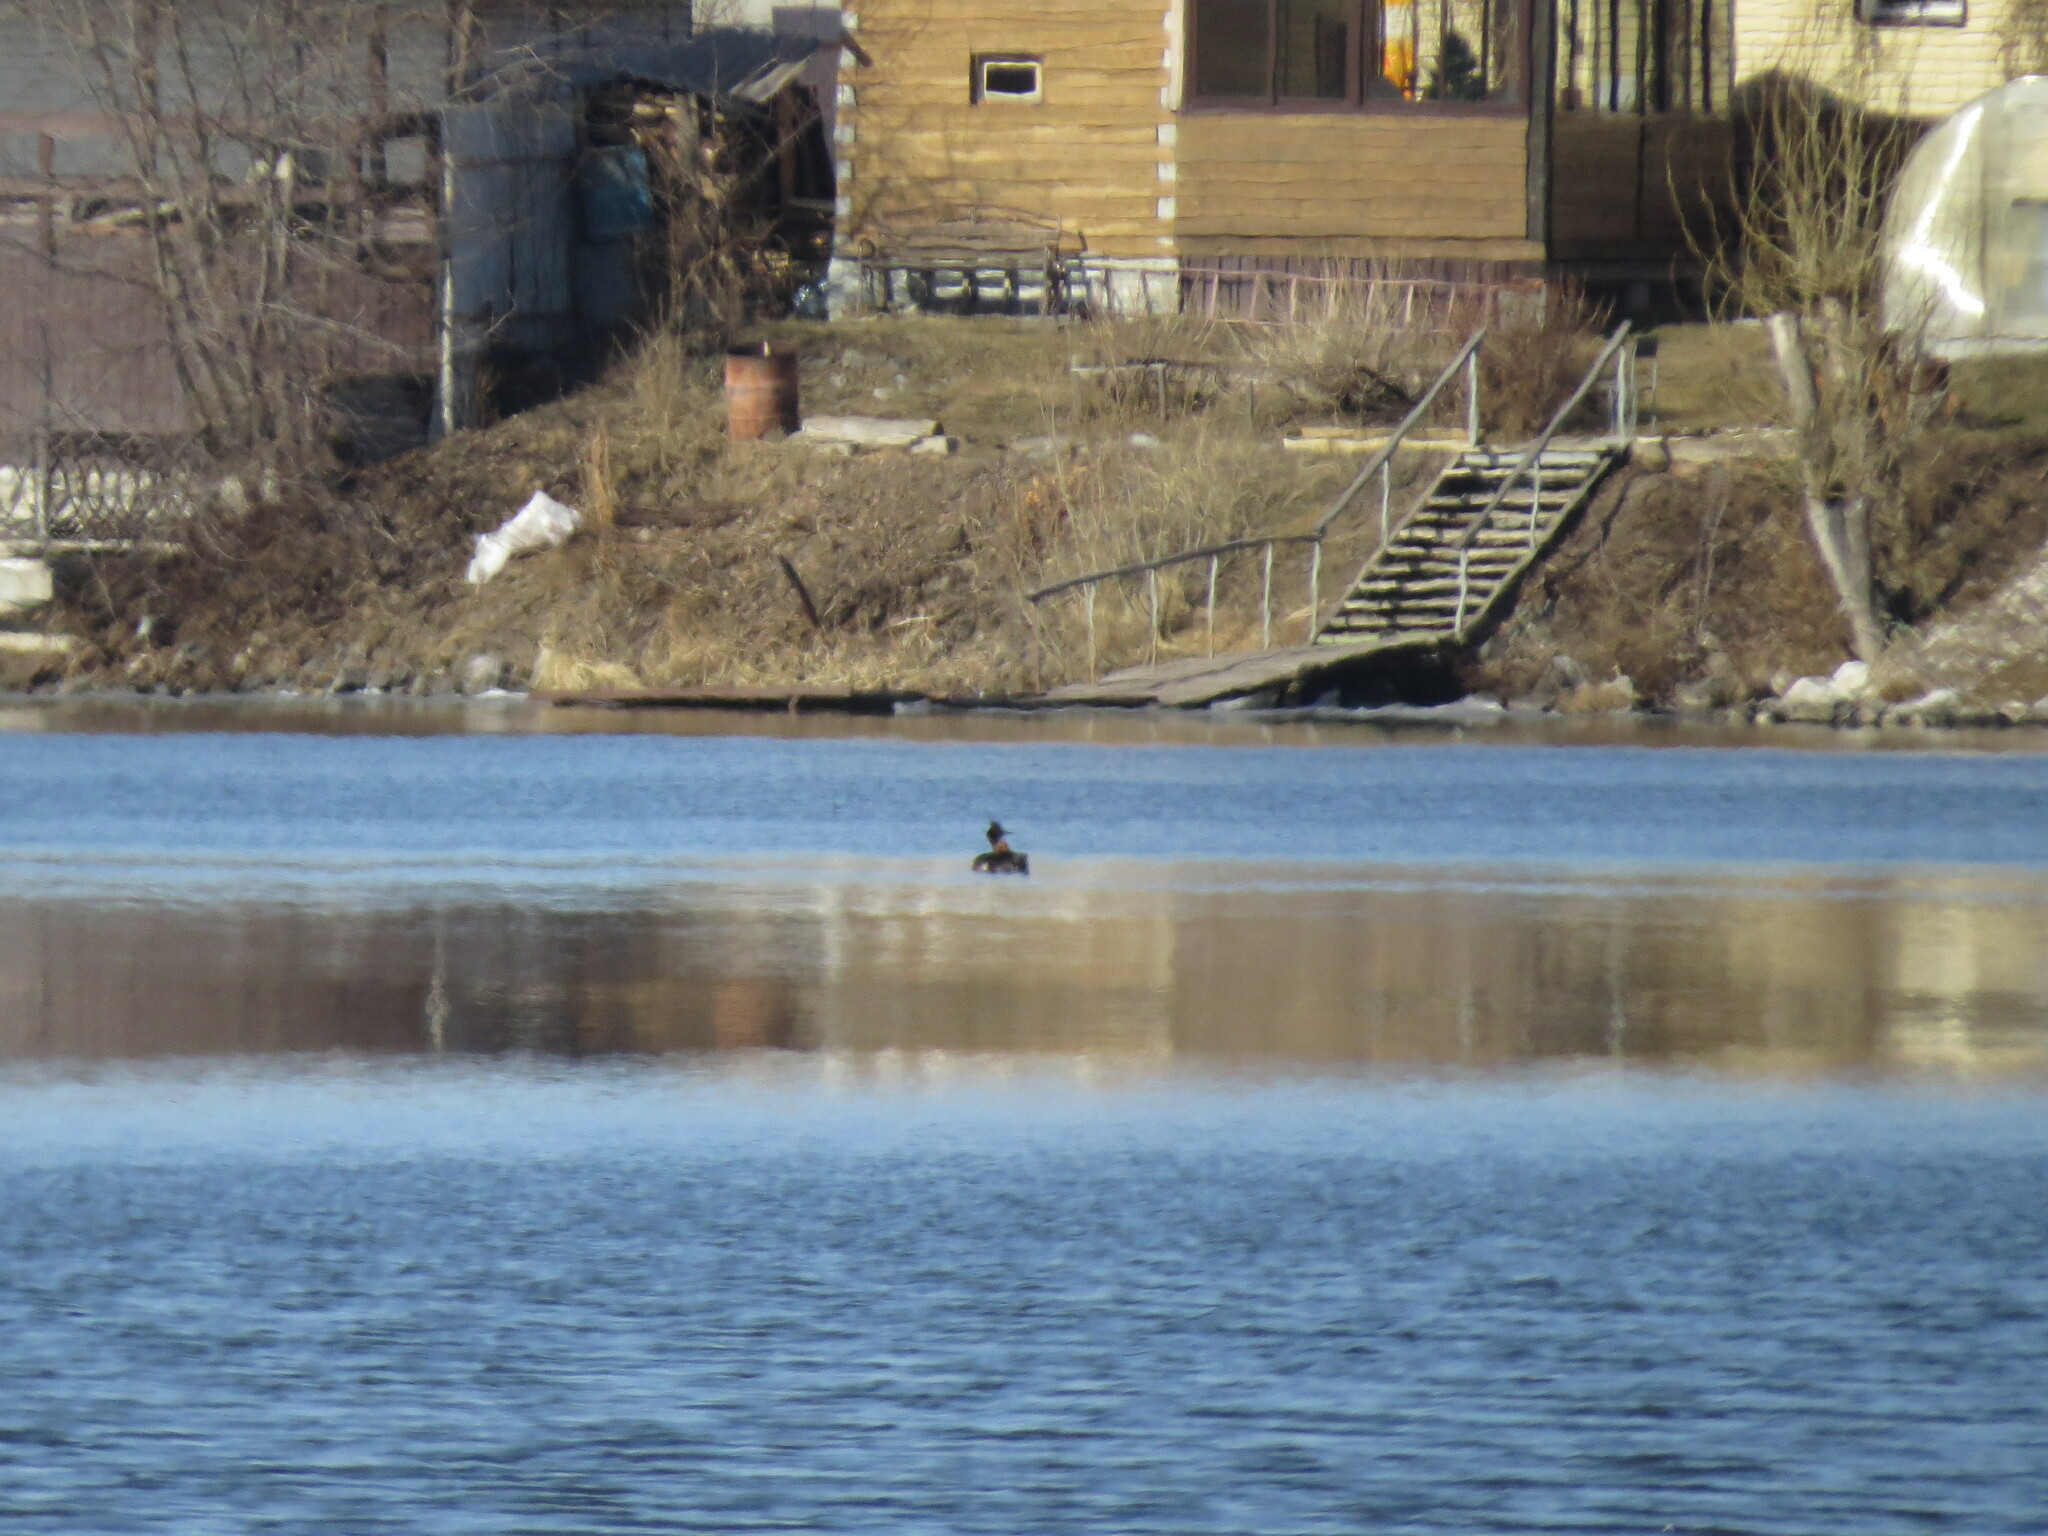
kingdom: Animalia
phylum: Chordata
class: Aves
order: Podicipediformes
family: Podicipedidae
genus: Podiceps
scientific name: Podiceps cristatus
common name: Great crested grebe
